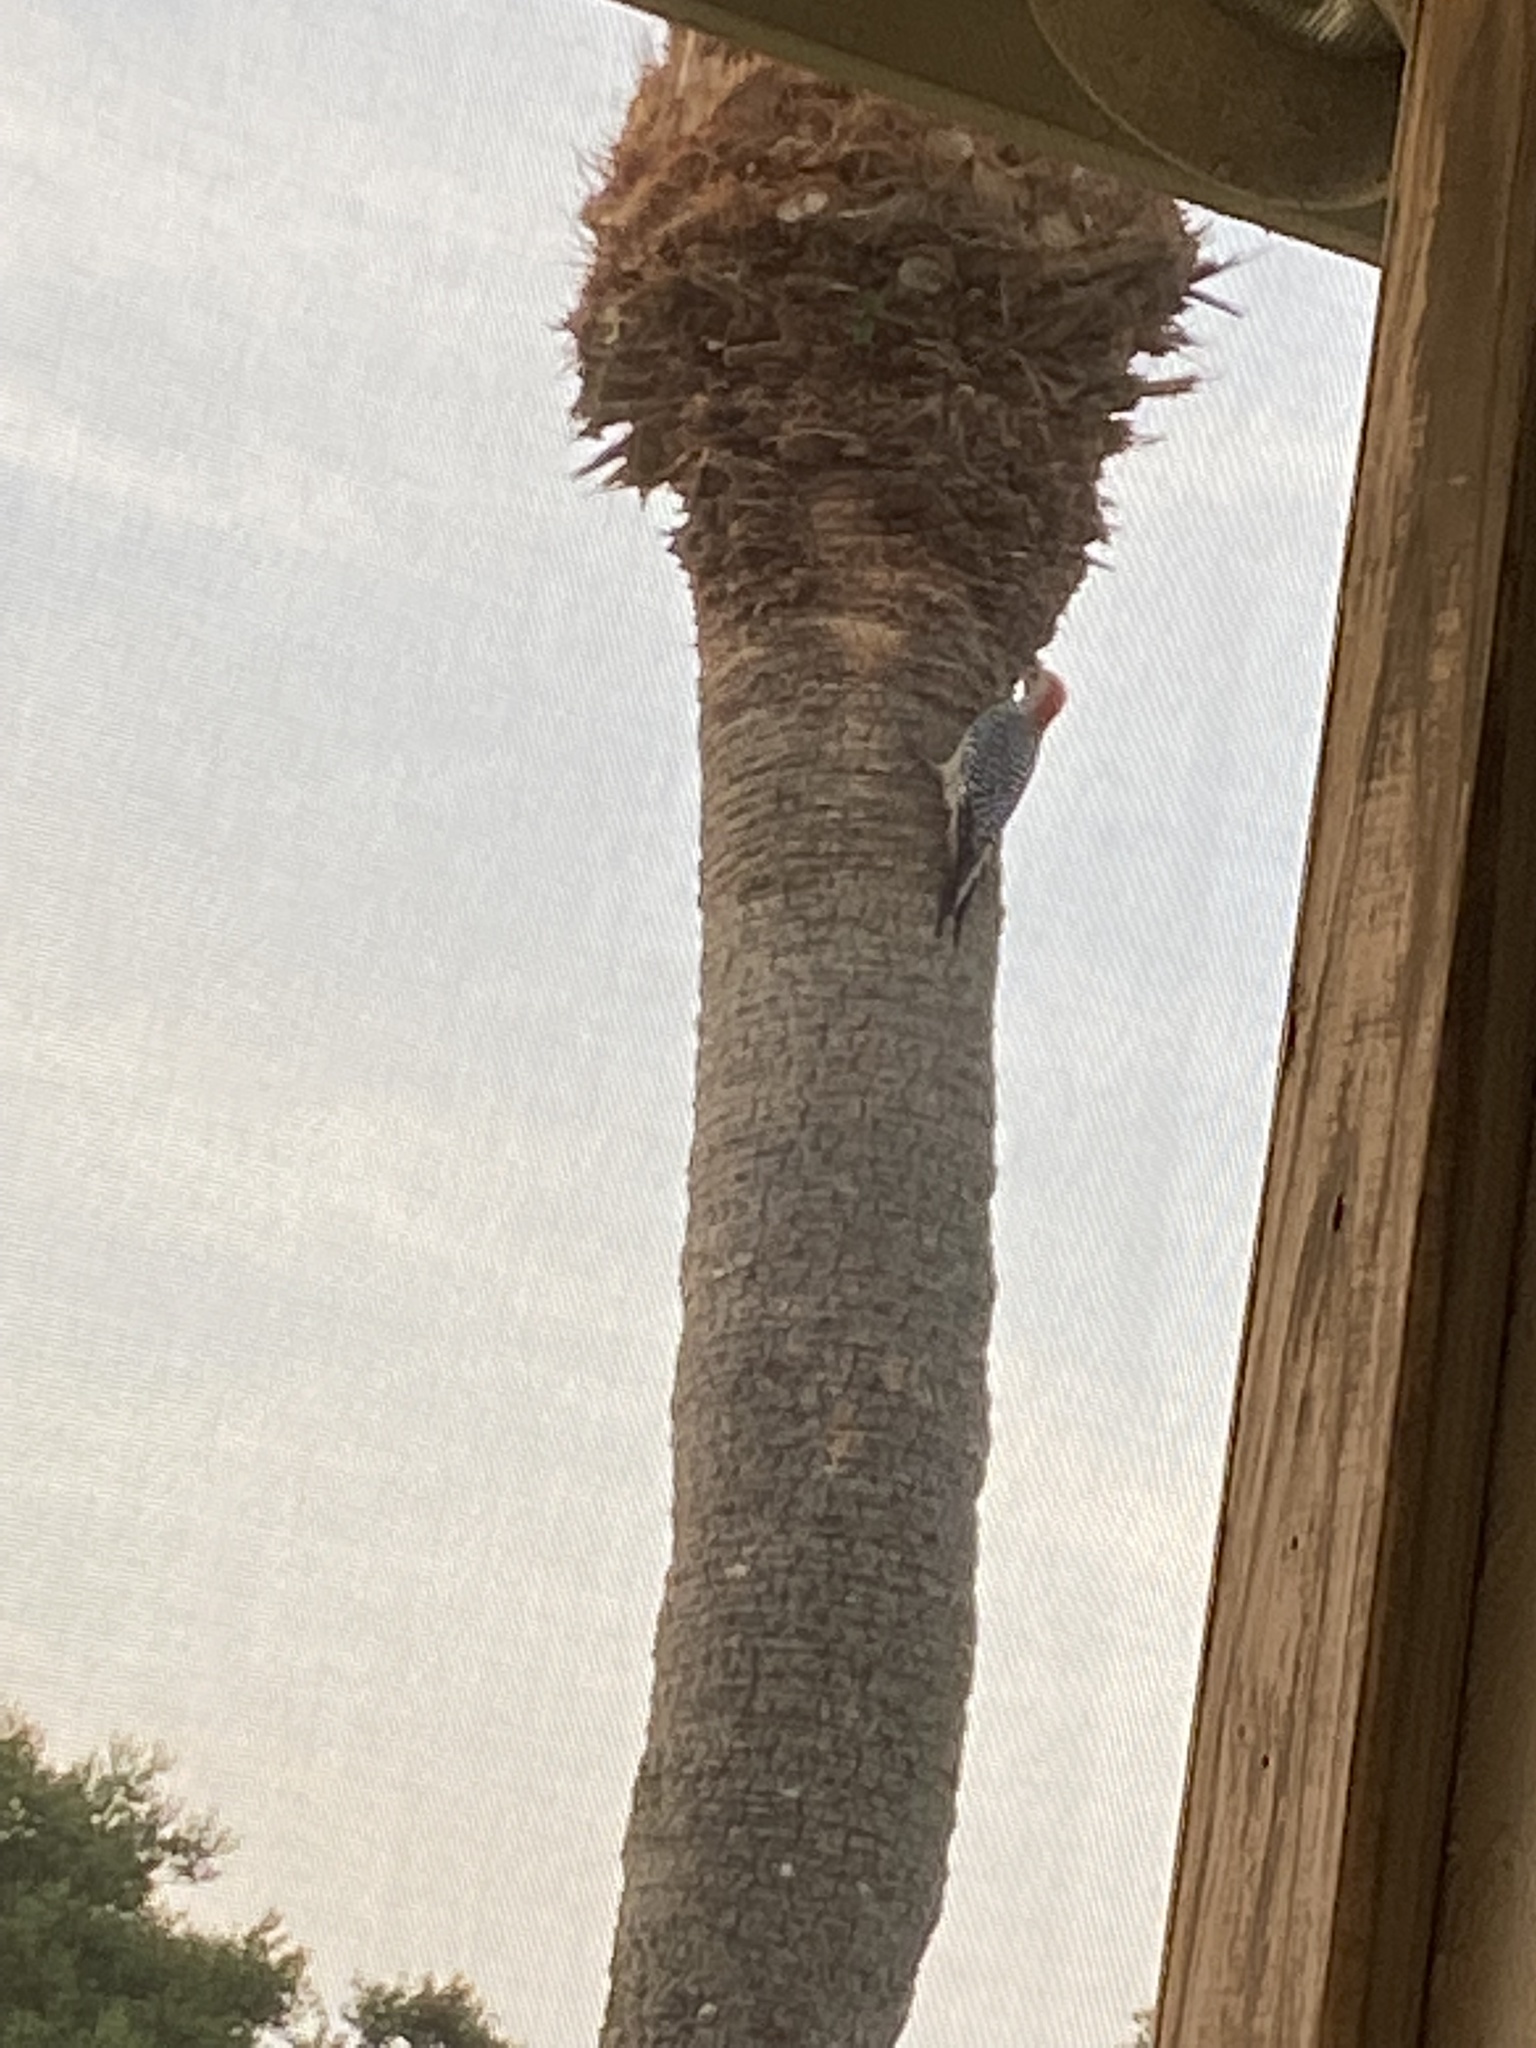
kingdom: Animalia
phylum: Chordata
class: Aves
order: Piciformes
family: Picidae
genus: Melanerpes
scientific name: Melanerpes carolinus
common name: Red-bellied woodpecker
